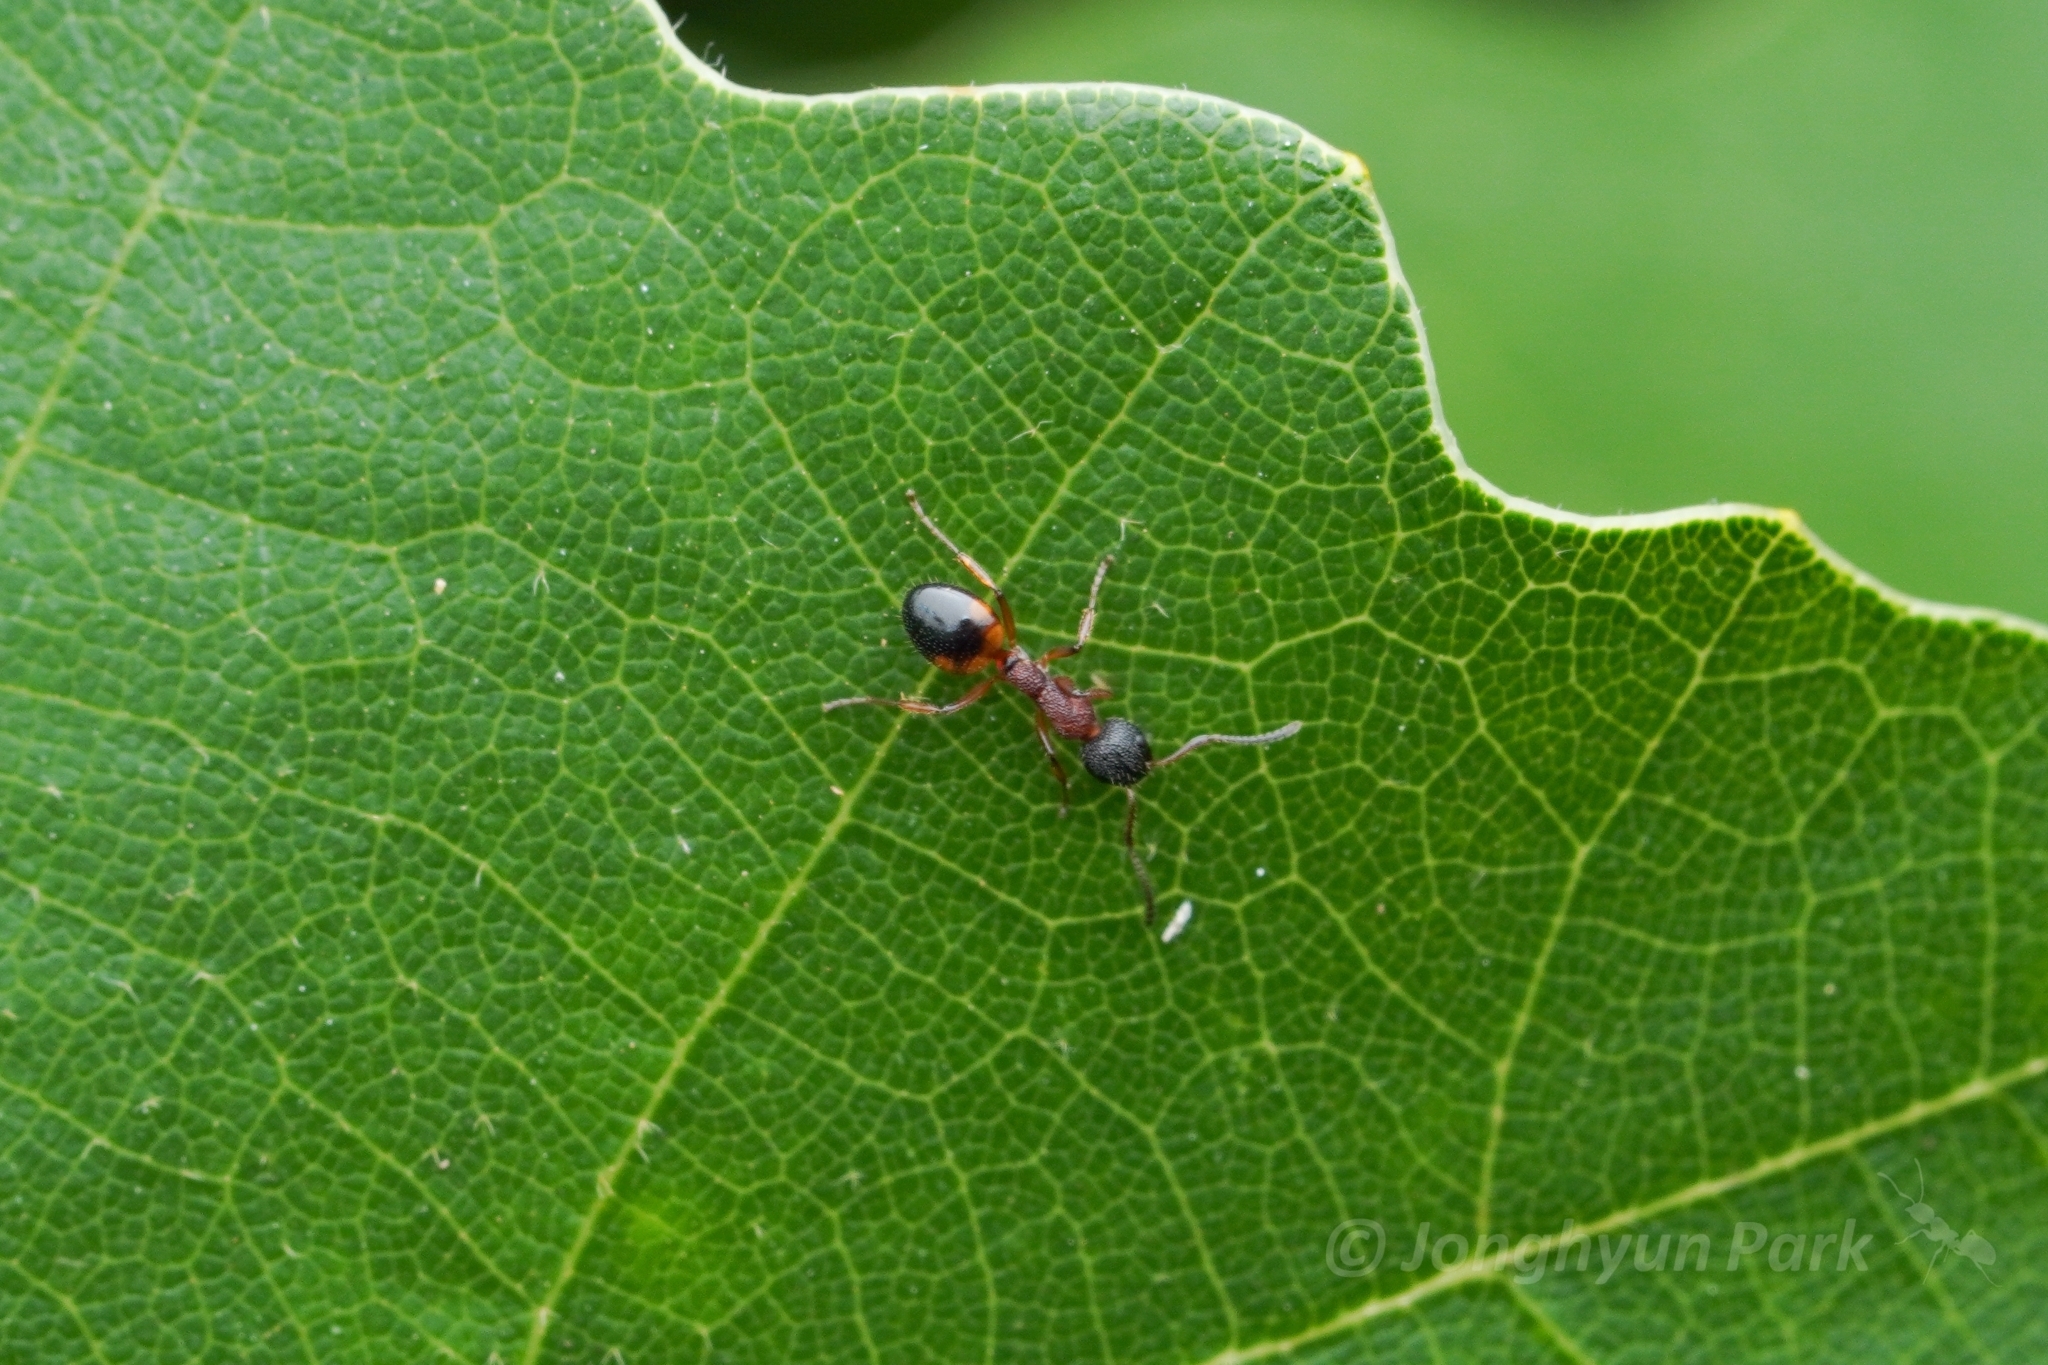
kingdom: Animalia
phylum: Arthropoda
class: Insecta
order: Hymenoptera
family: Formicidae
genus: Dolichoderus
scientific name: Dolichoderus plagiatus
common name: Mottled dolichoderus
